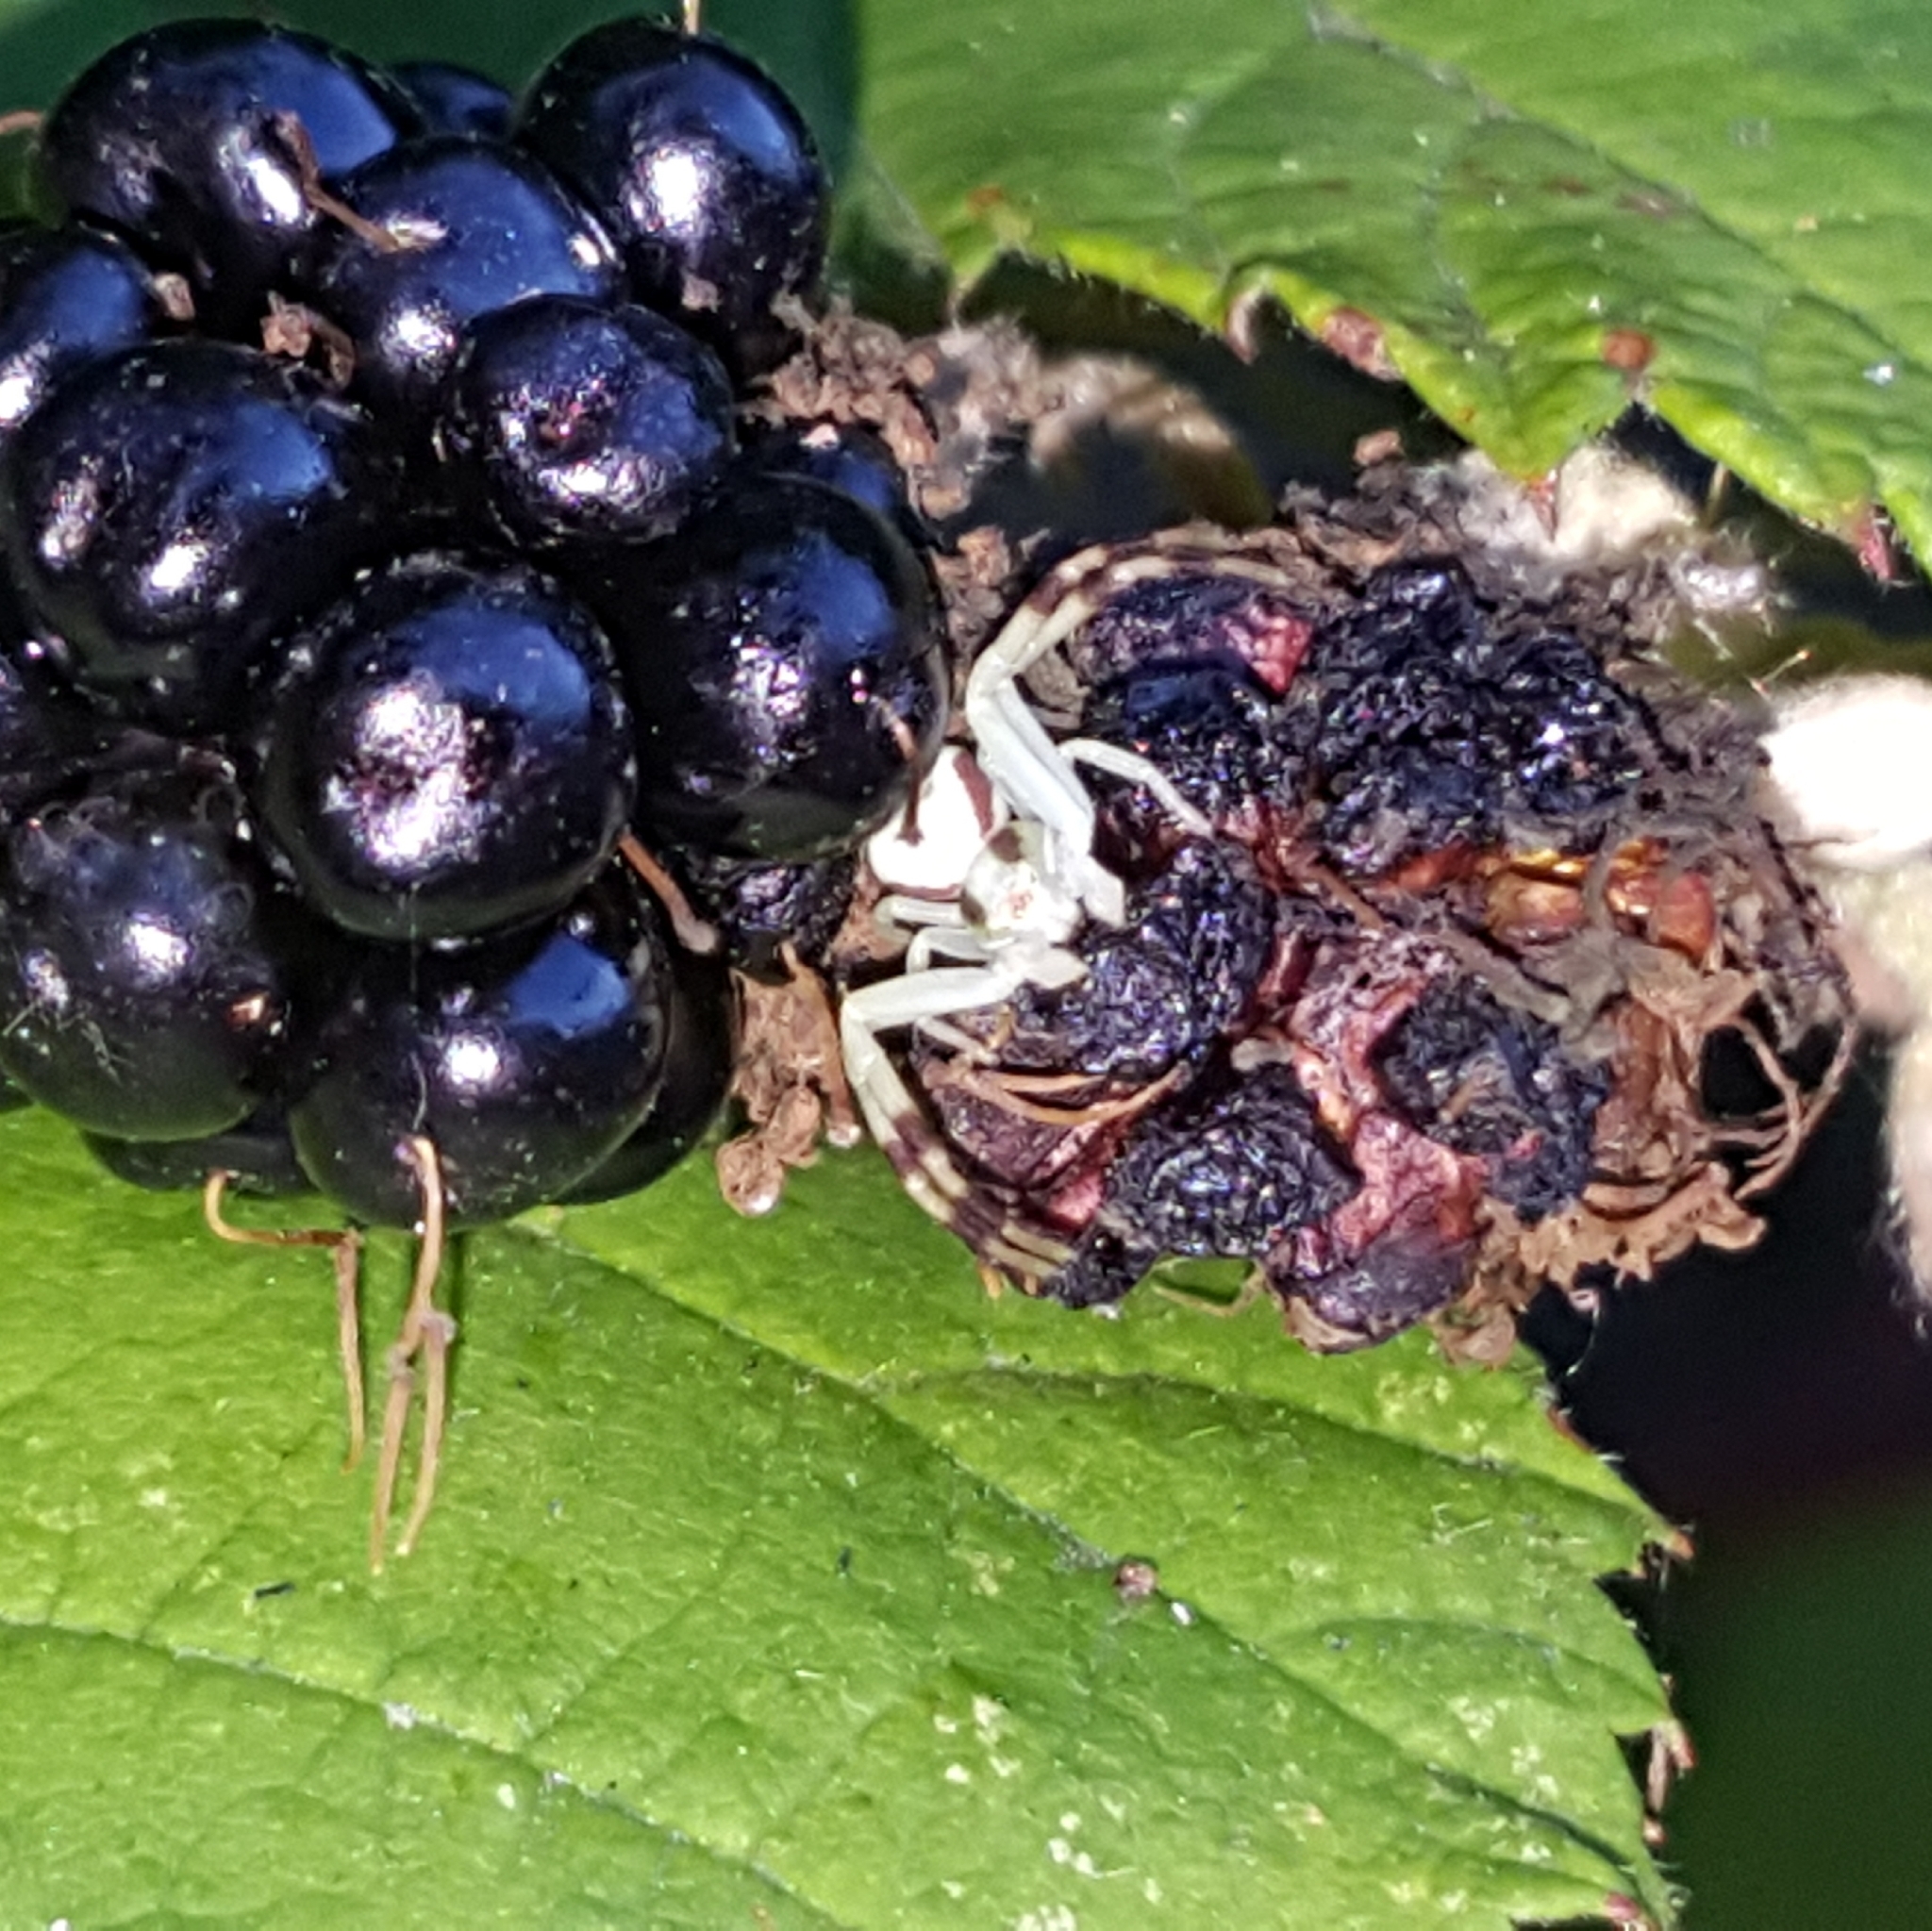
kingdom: Animalia
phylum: Arthropoda
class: Arachnida
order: Araneae
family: Thomisidae
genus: Misumena
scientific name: Misumena vatia
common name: Goldenrod crab spider
